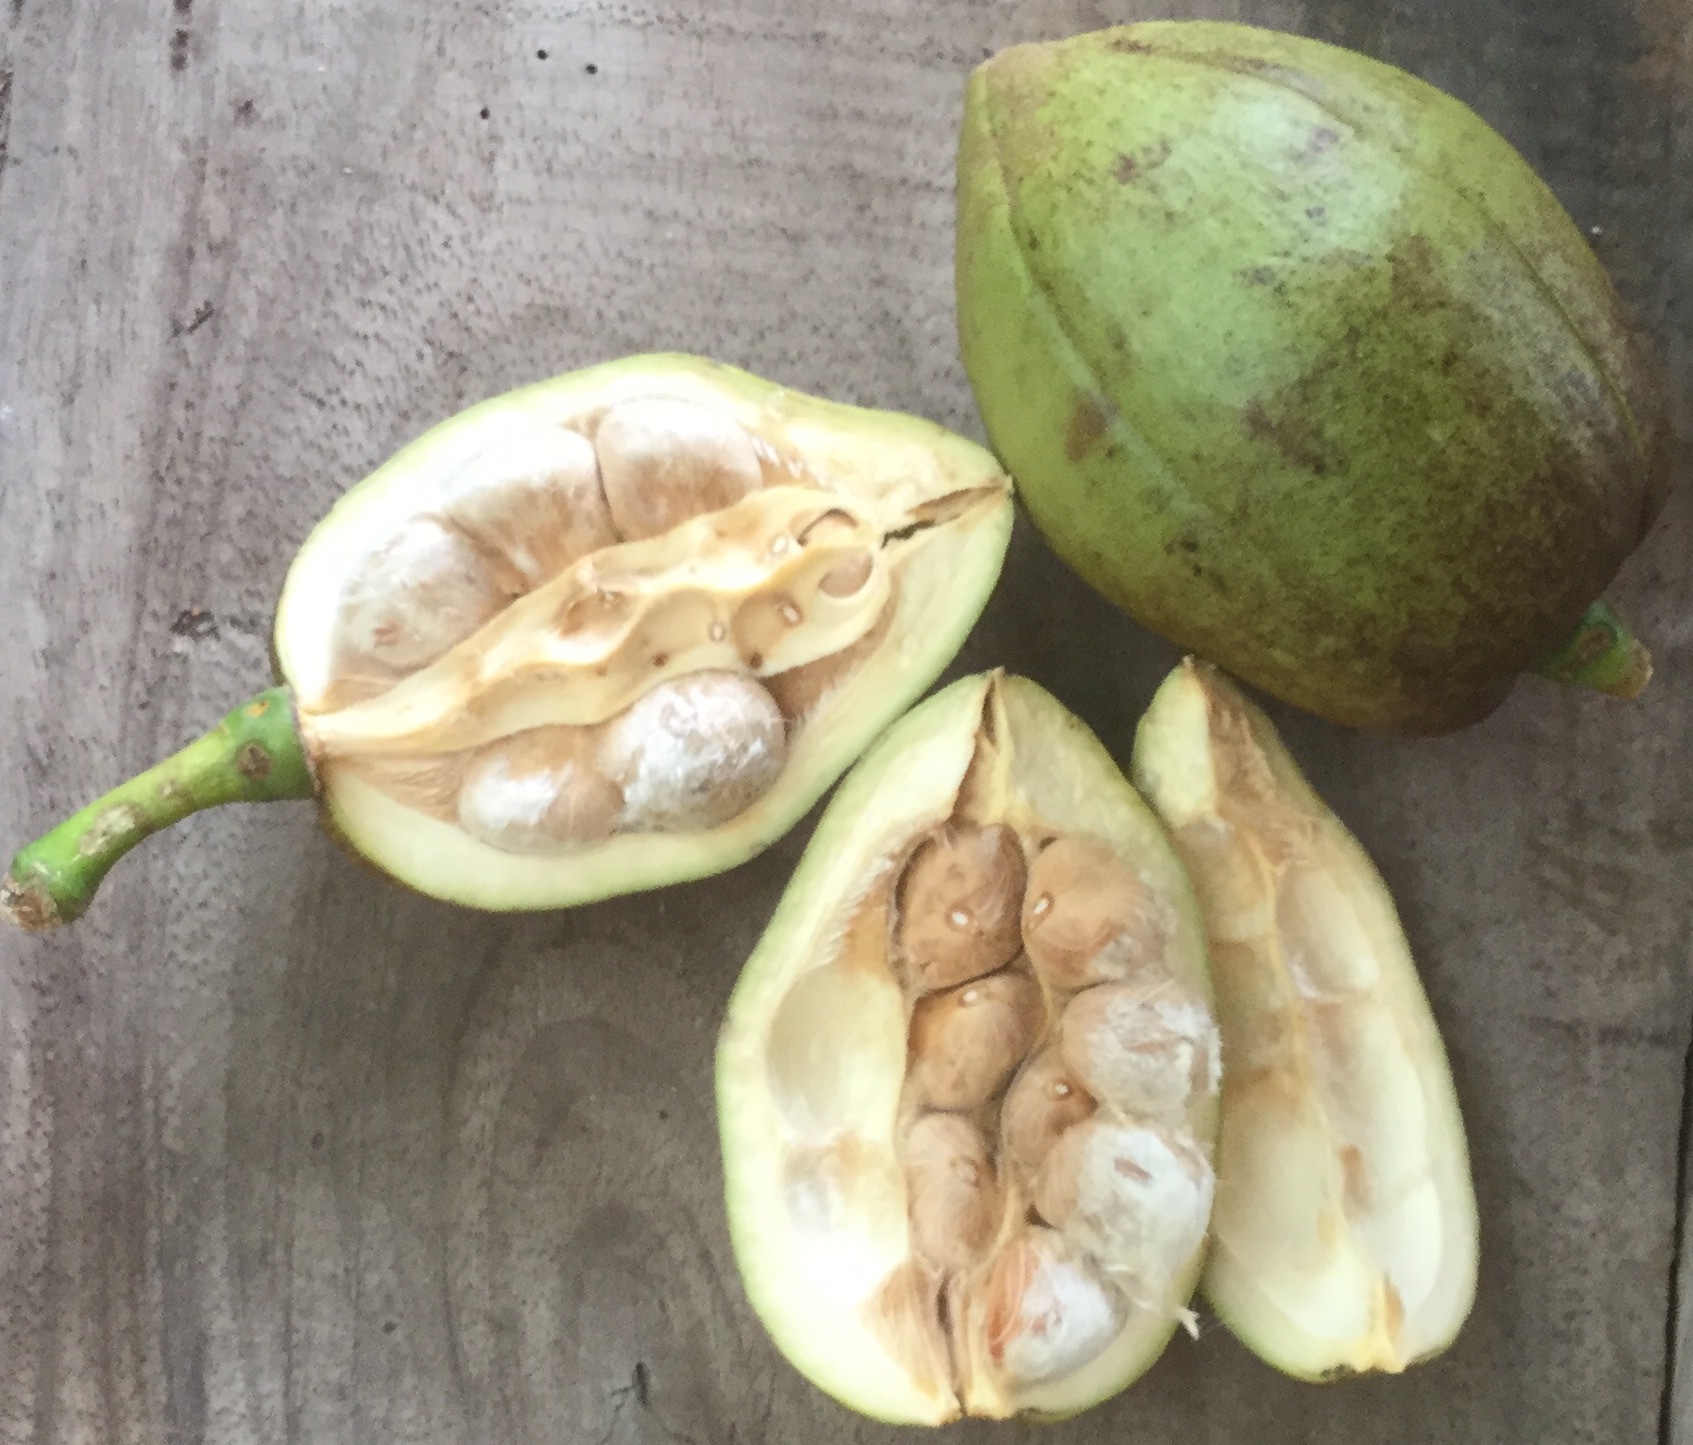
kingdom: Plantae
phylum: Tracheophyta
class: Magnoliopsida
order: Malvales
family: Malvaceae
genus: Pachira
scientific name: Pachira glabra
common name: Moneytree
